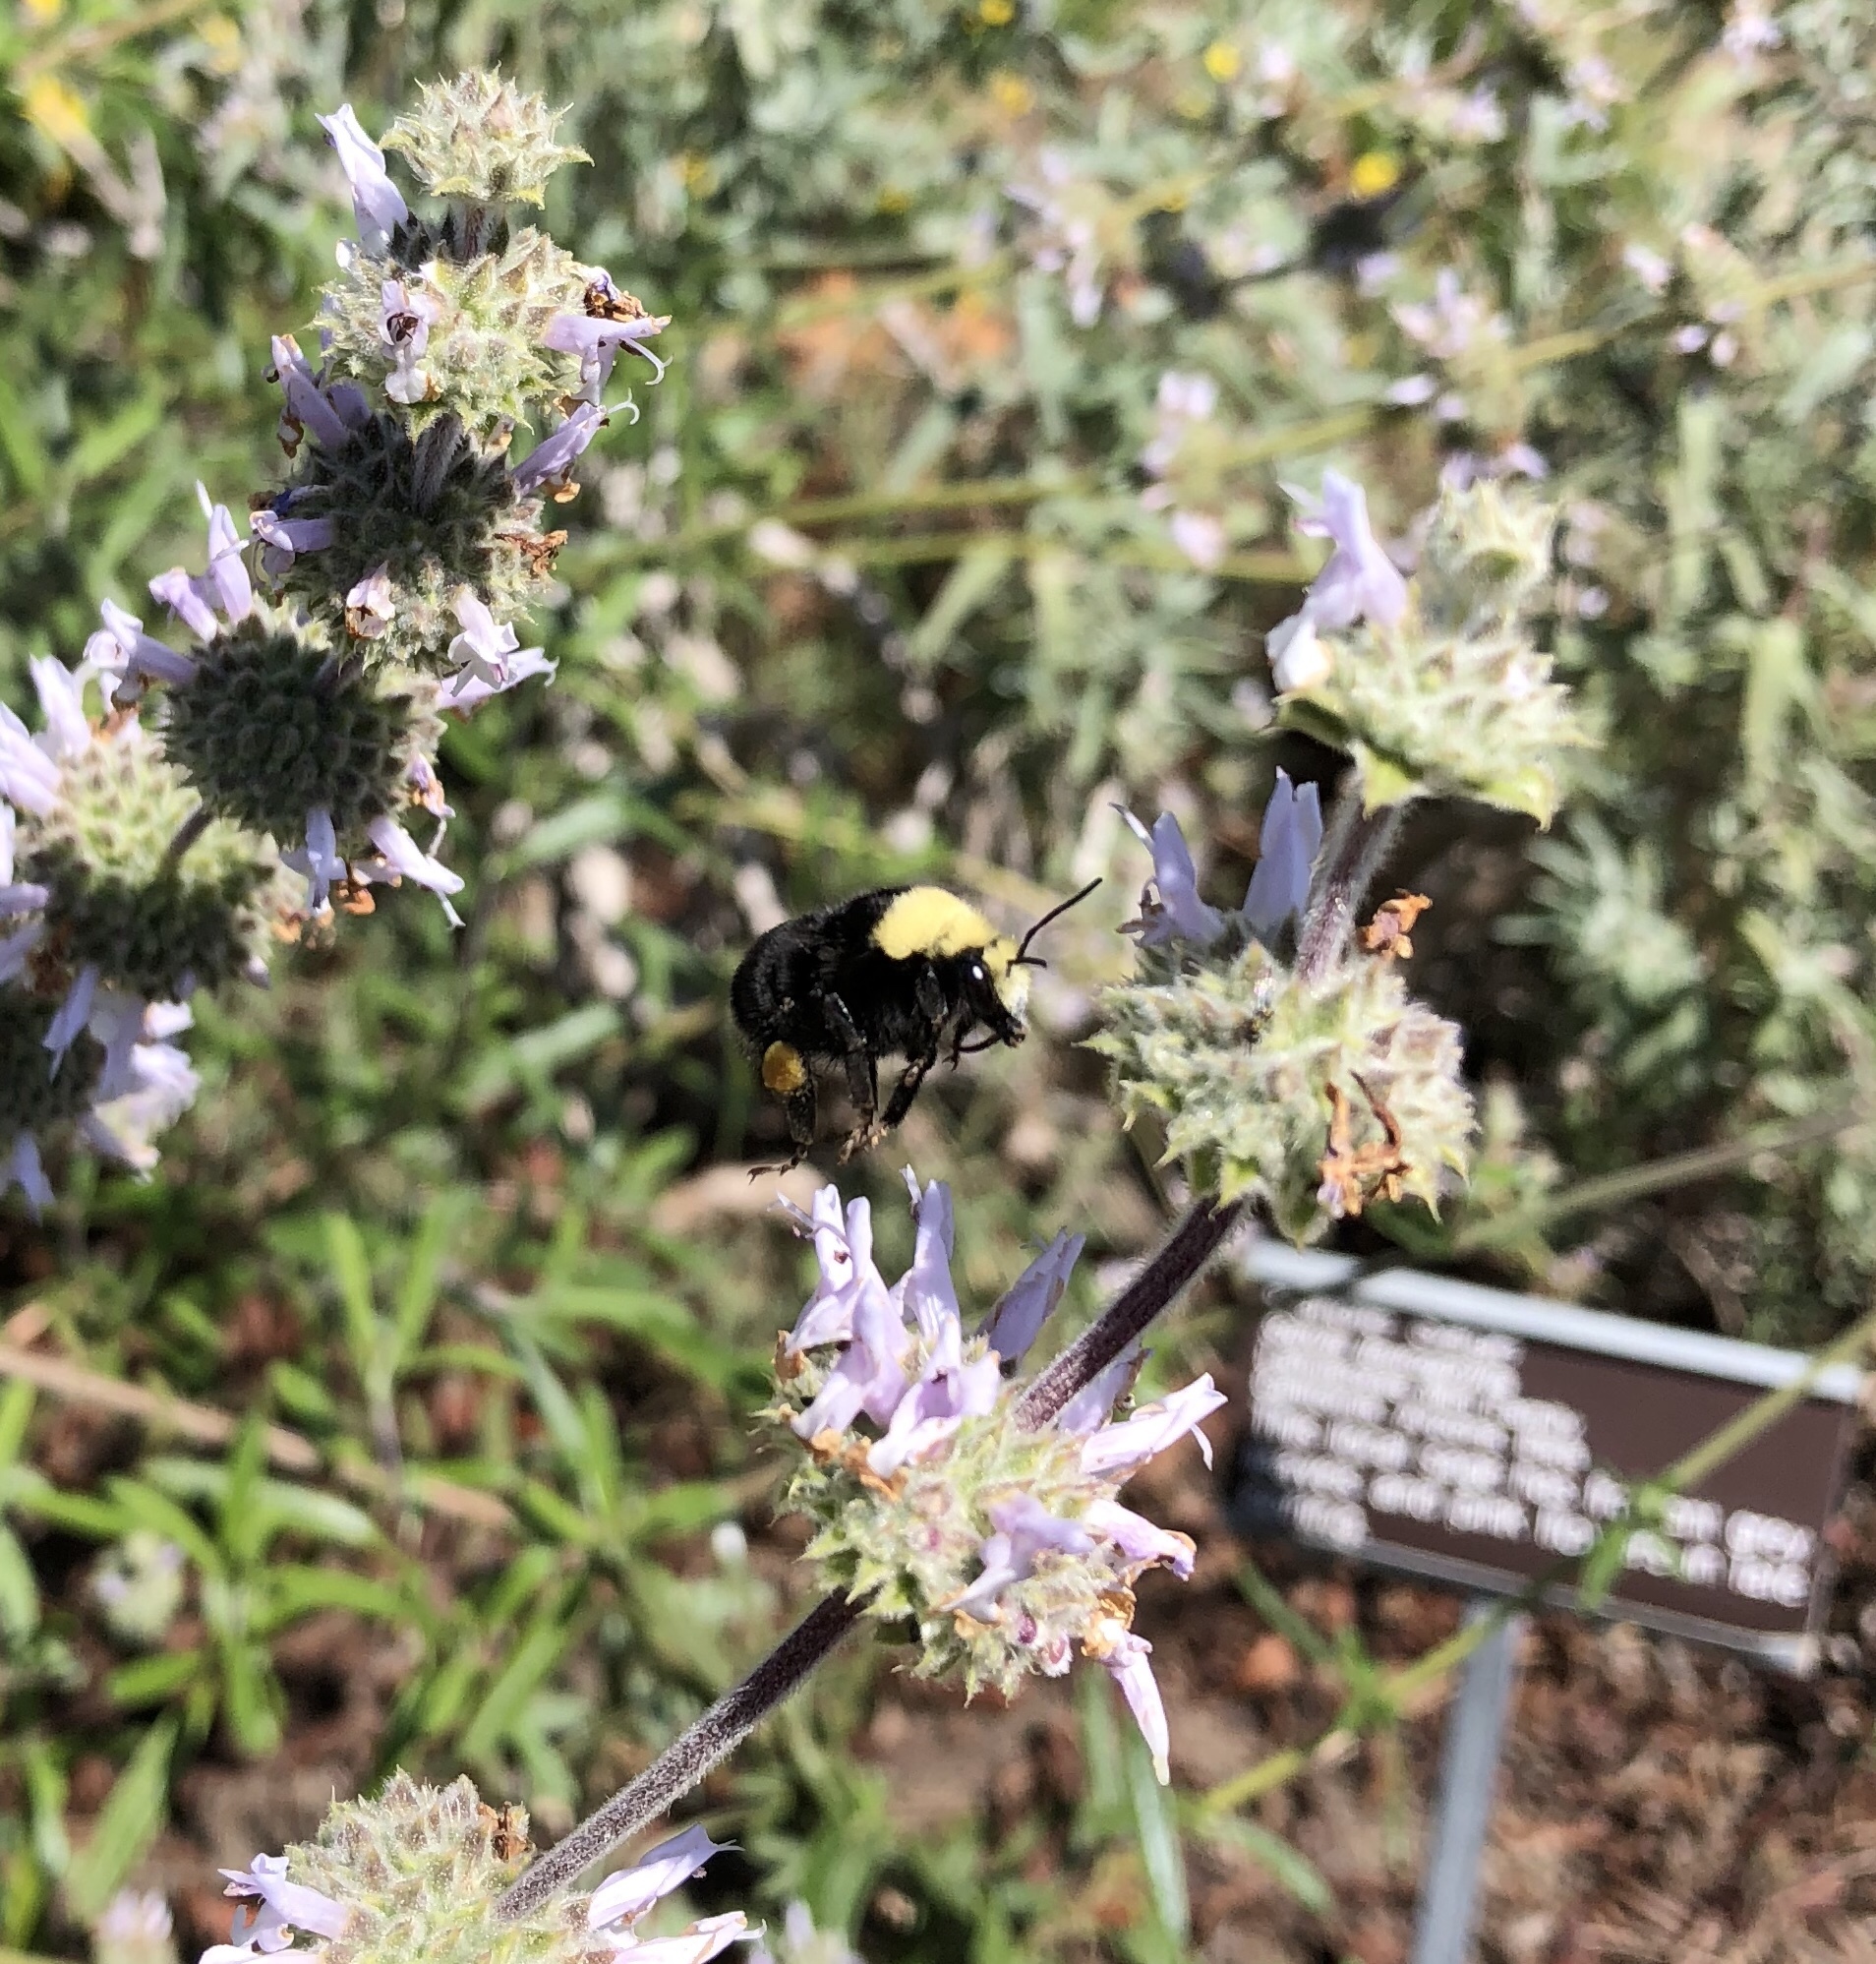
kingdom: Animalia
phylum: Arthropoda
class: Insecta
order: Hymenoptera
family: Apidae
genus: Bombus
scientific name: Bombus vosnesenskii
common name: Vosnesensky bumble bee
